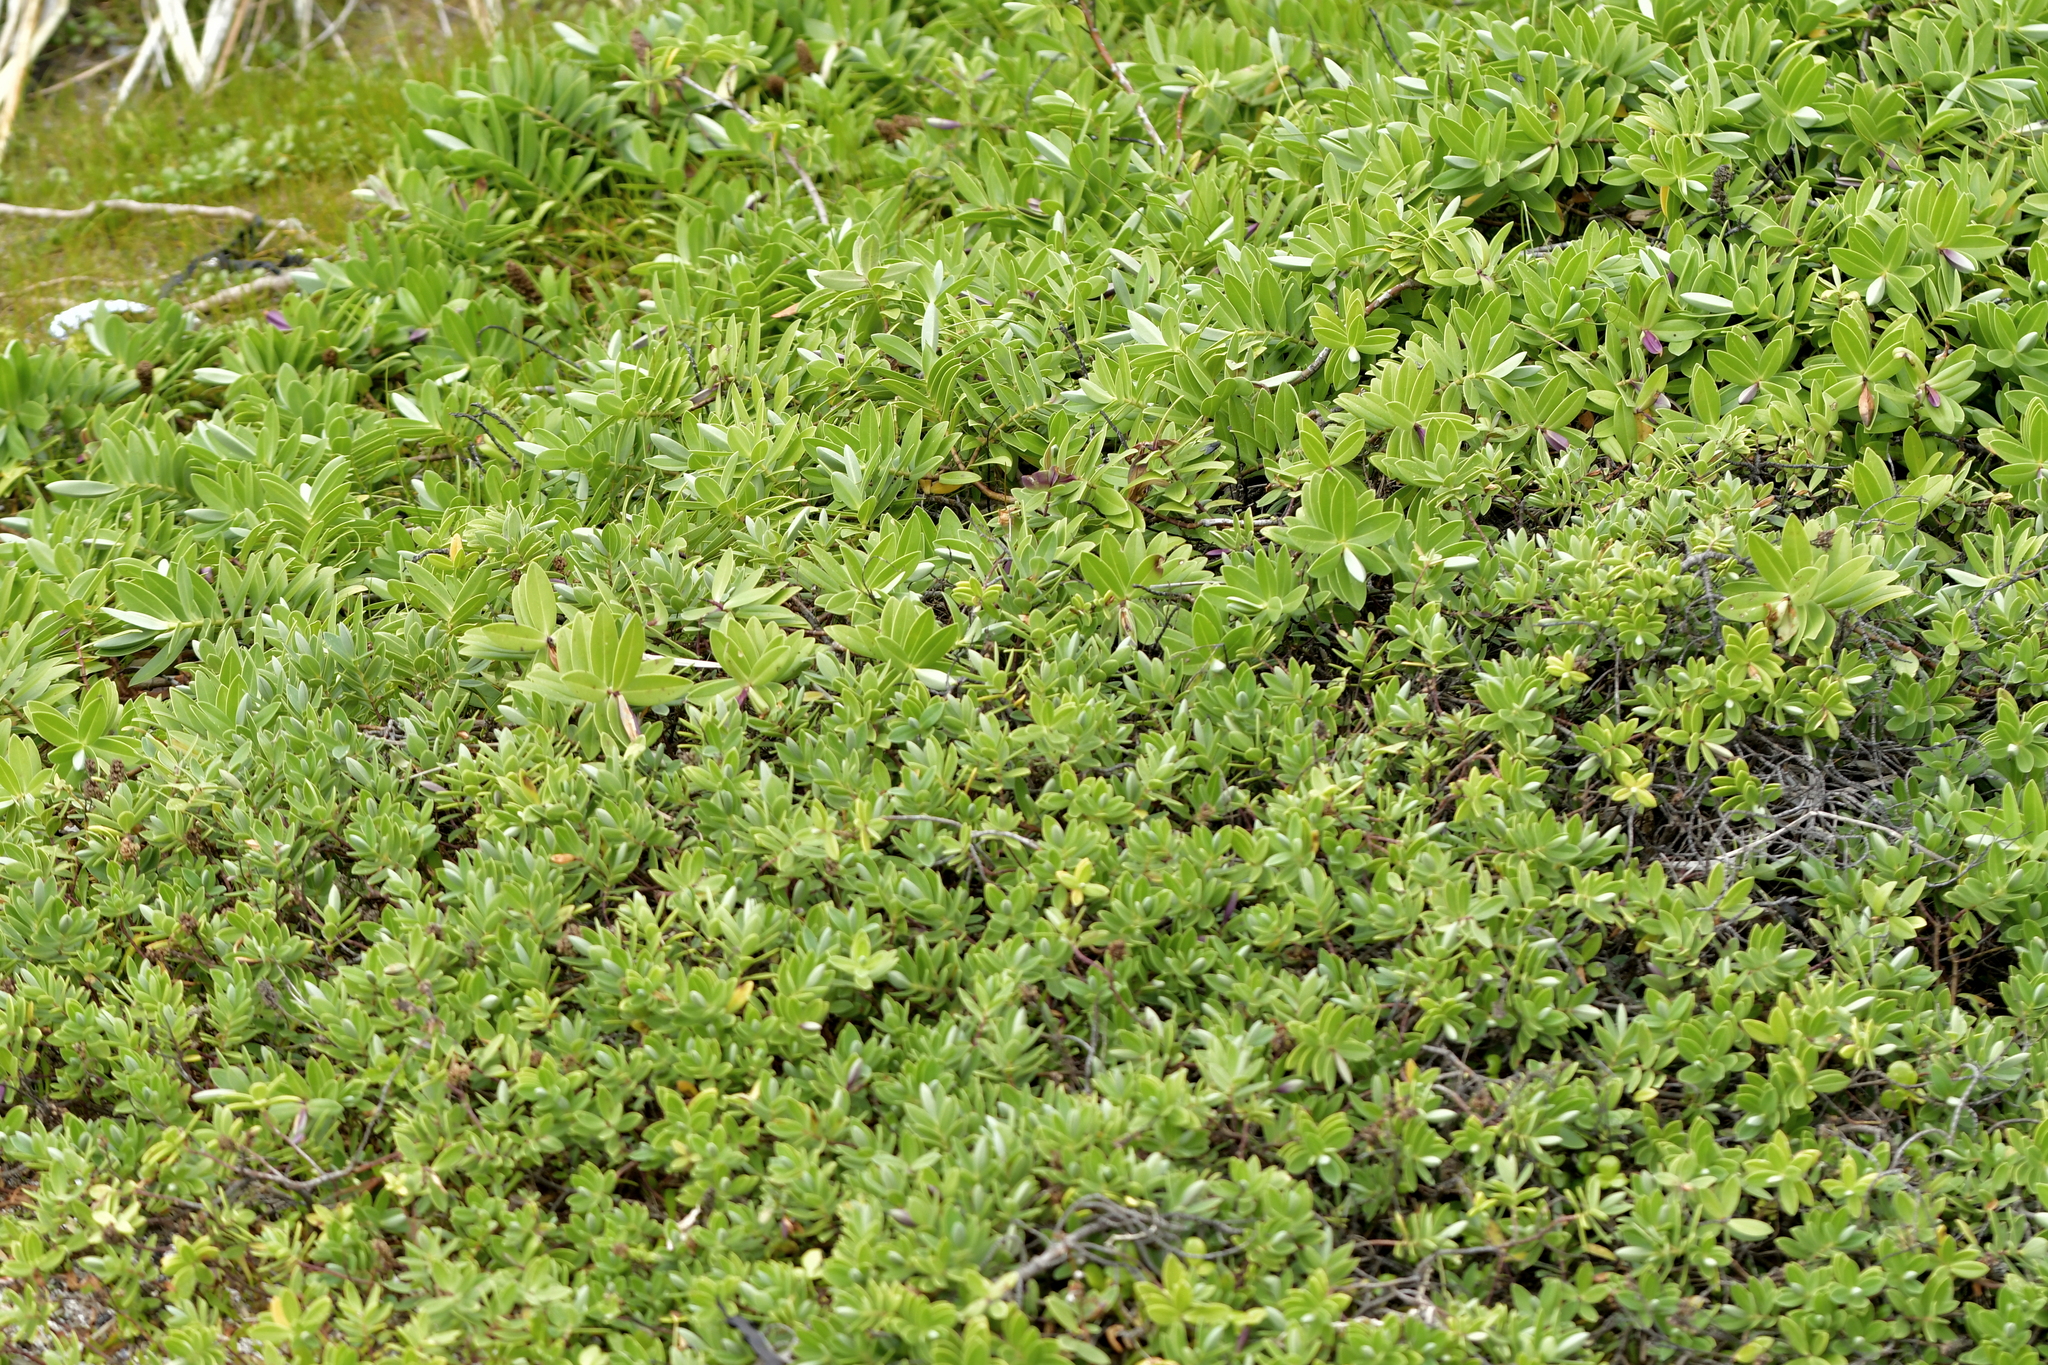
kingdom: Plantae
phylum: Tracheophyta
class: Magnoliopsida
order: Lamiales
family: Plantaginaceae
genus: Veronica
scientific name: Veronica
